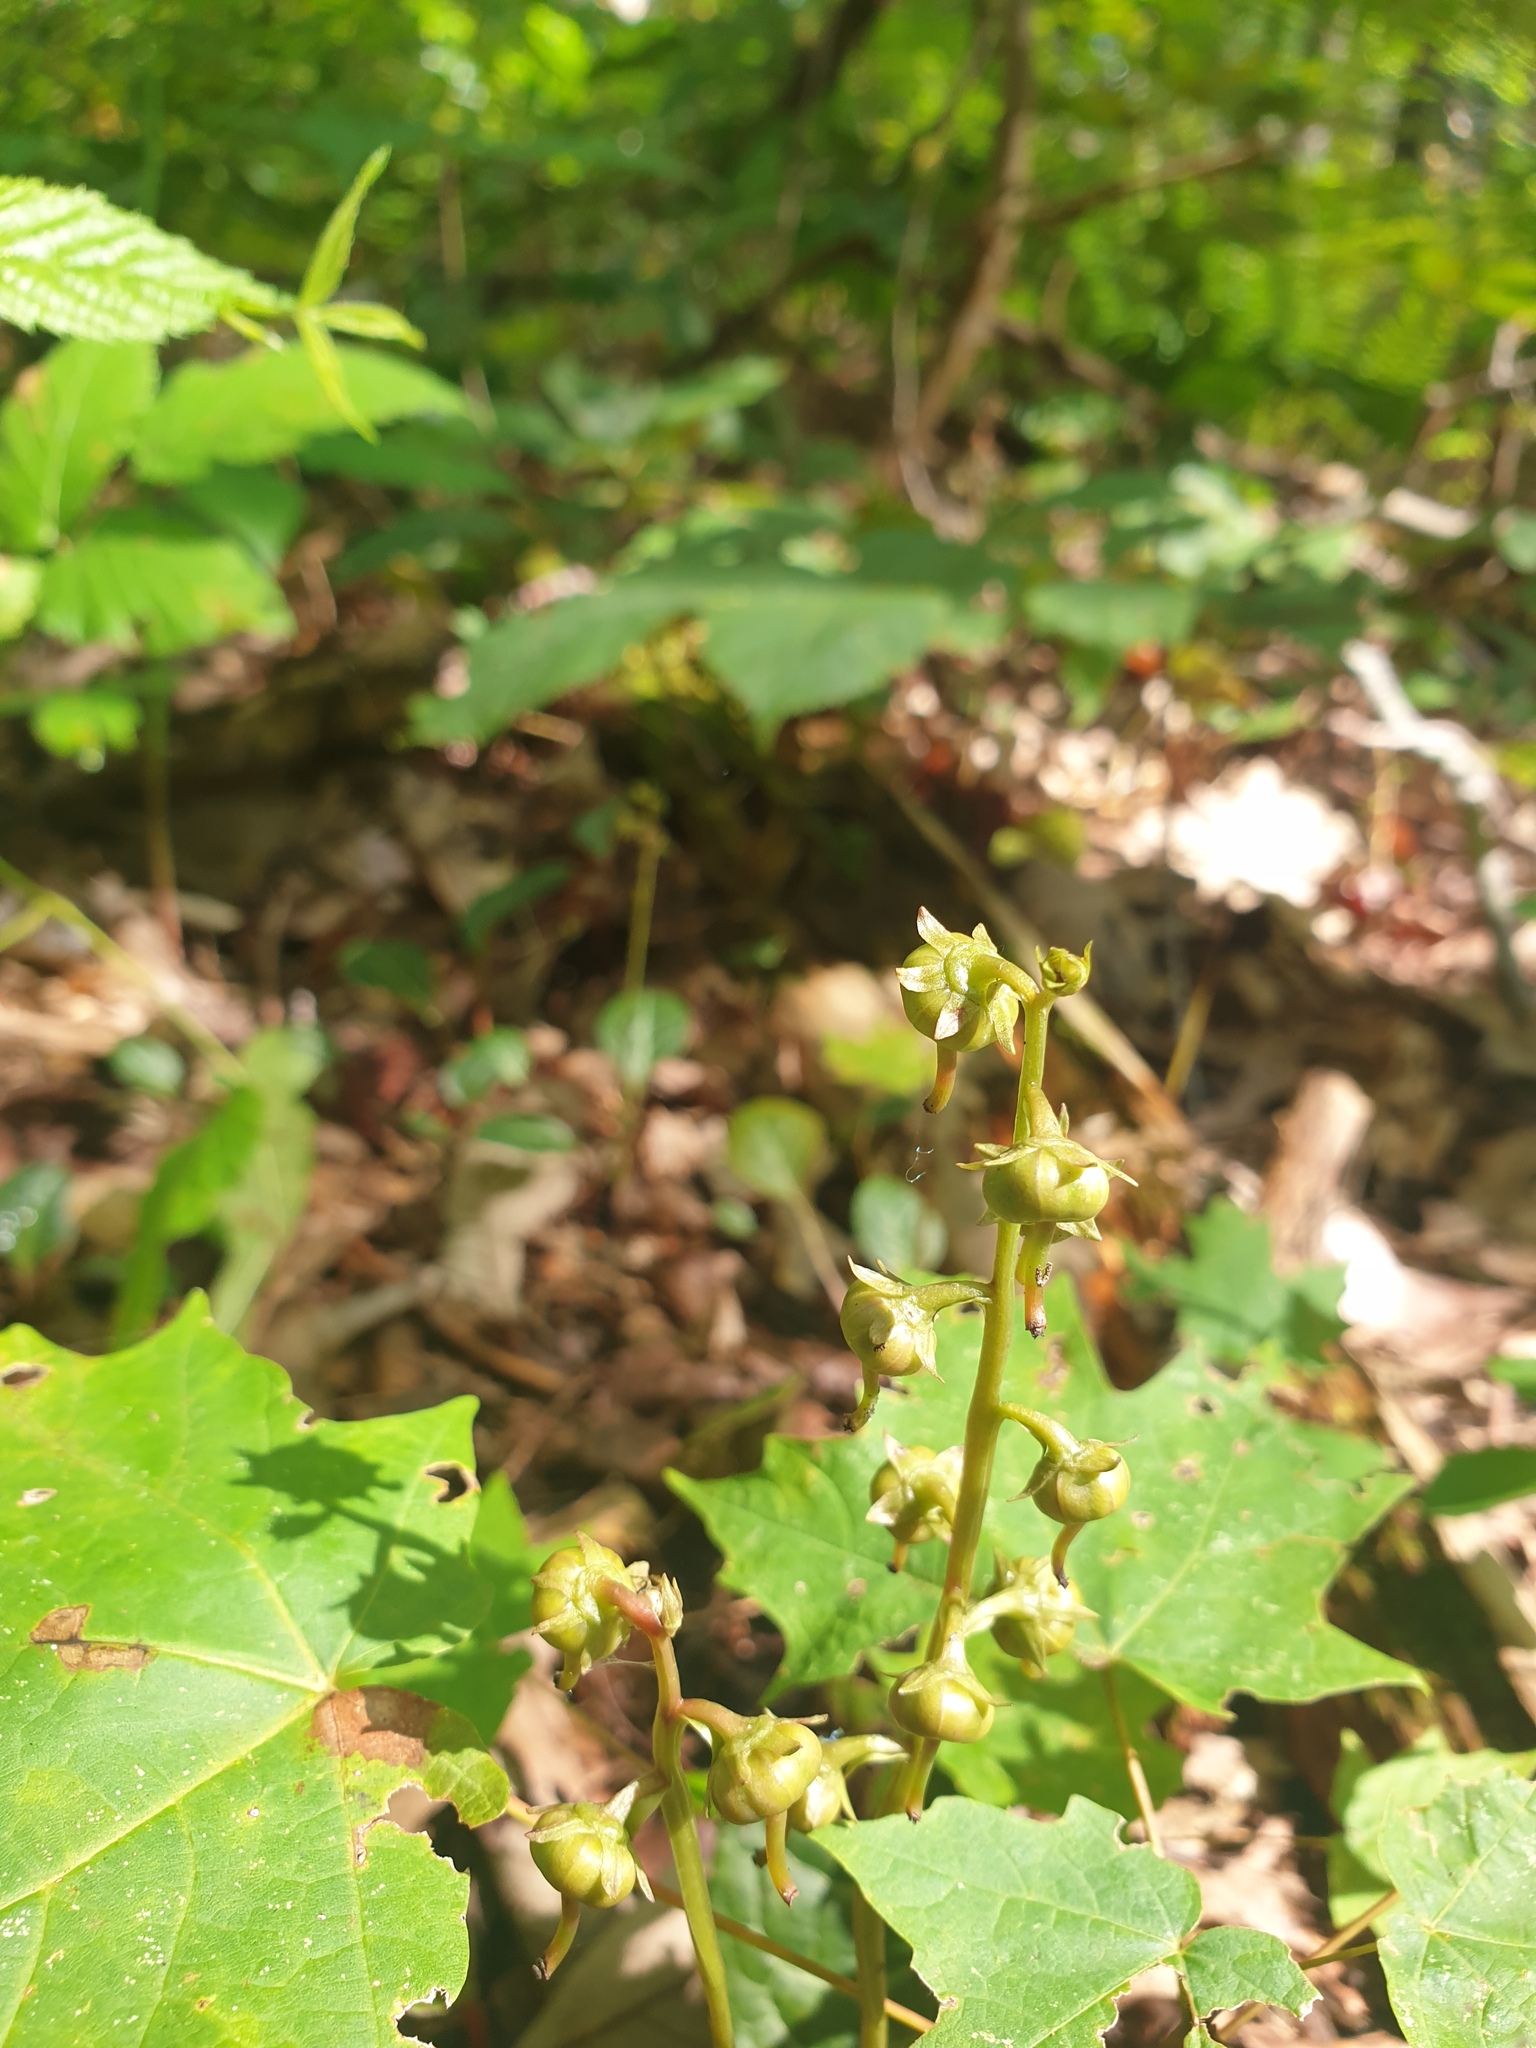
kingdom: Plantae
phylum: Tracheophyta
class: Magnoliopsida
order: Ericales
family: Ericaceae
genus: Pyrola
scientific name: Pyrola americana
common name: American wintergreen
